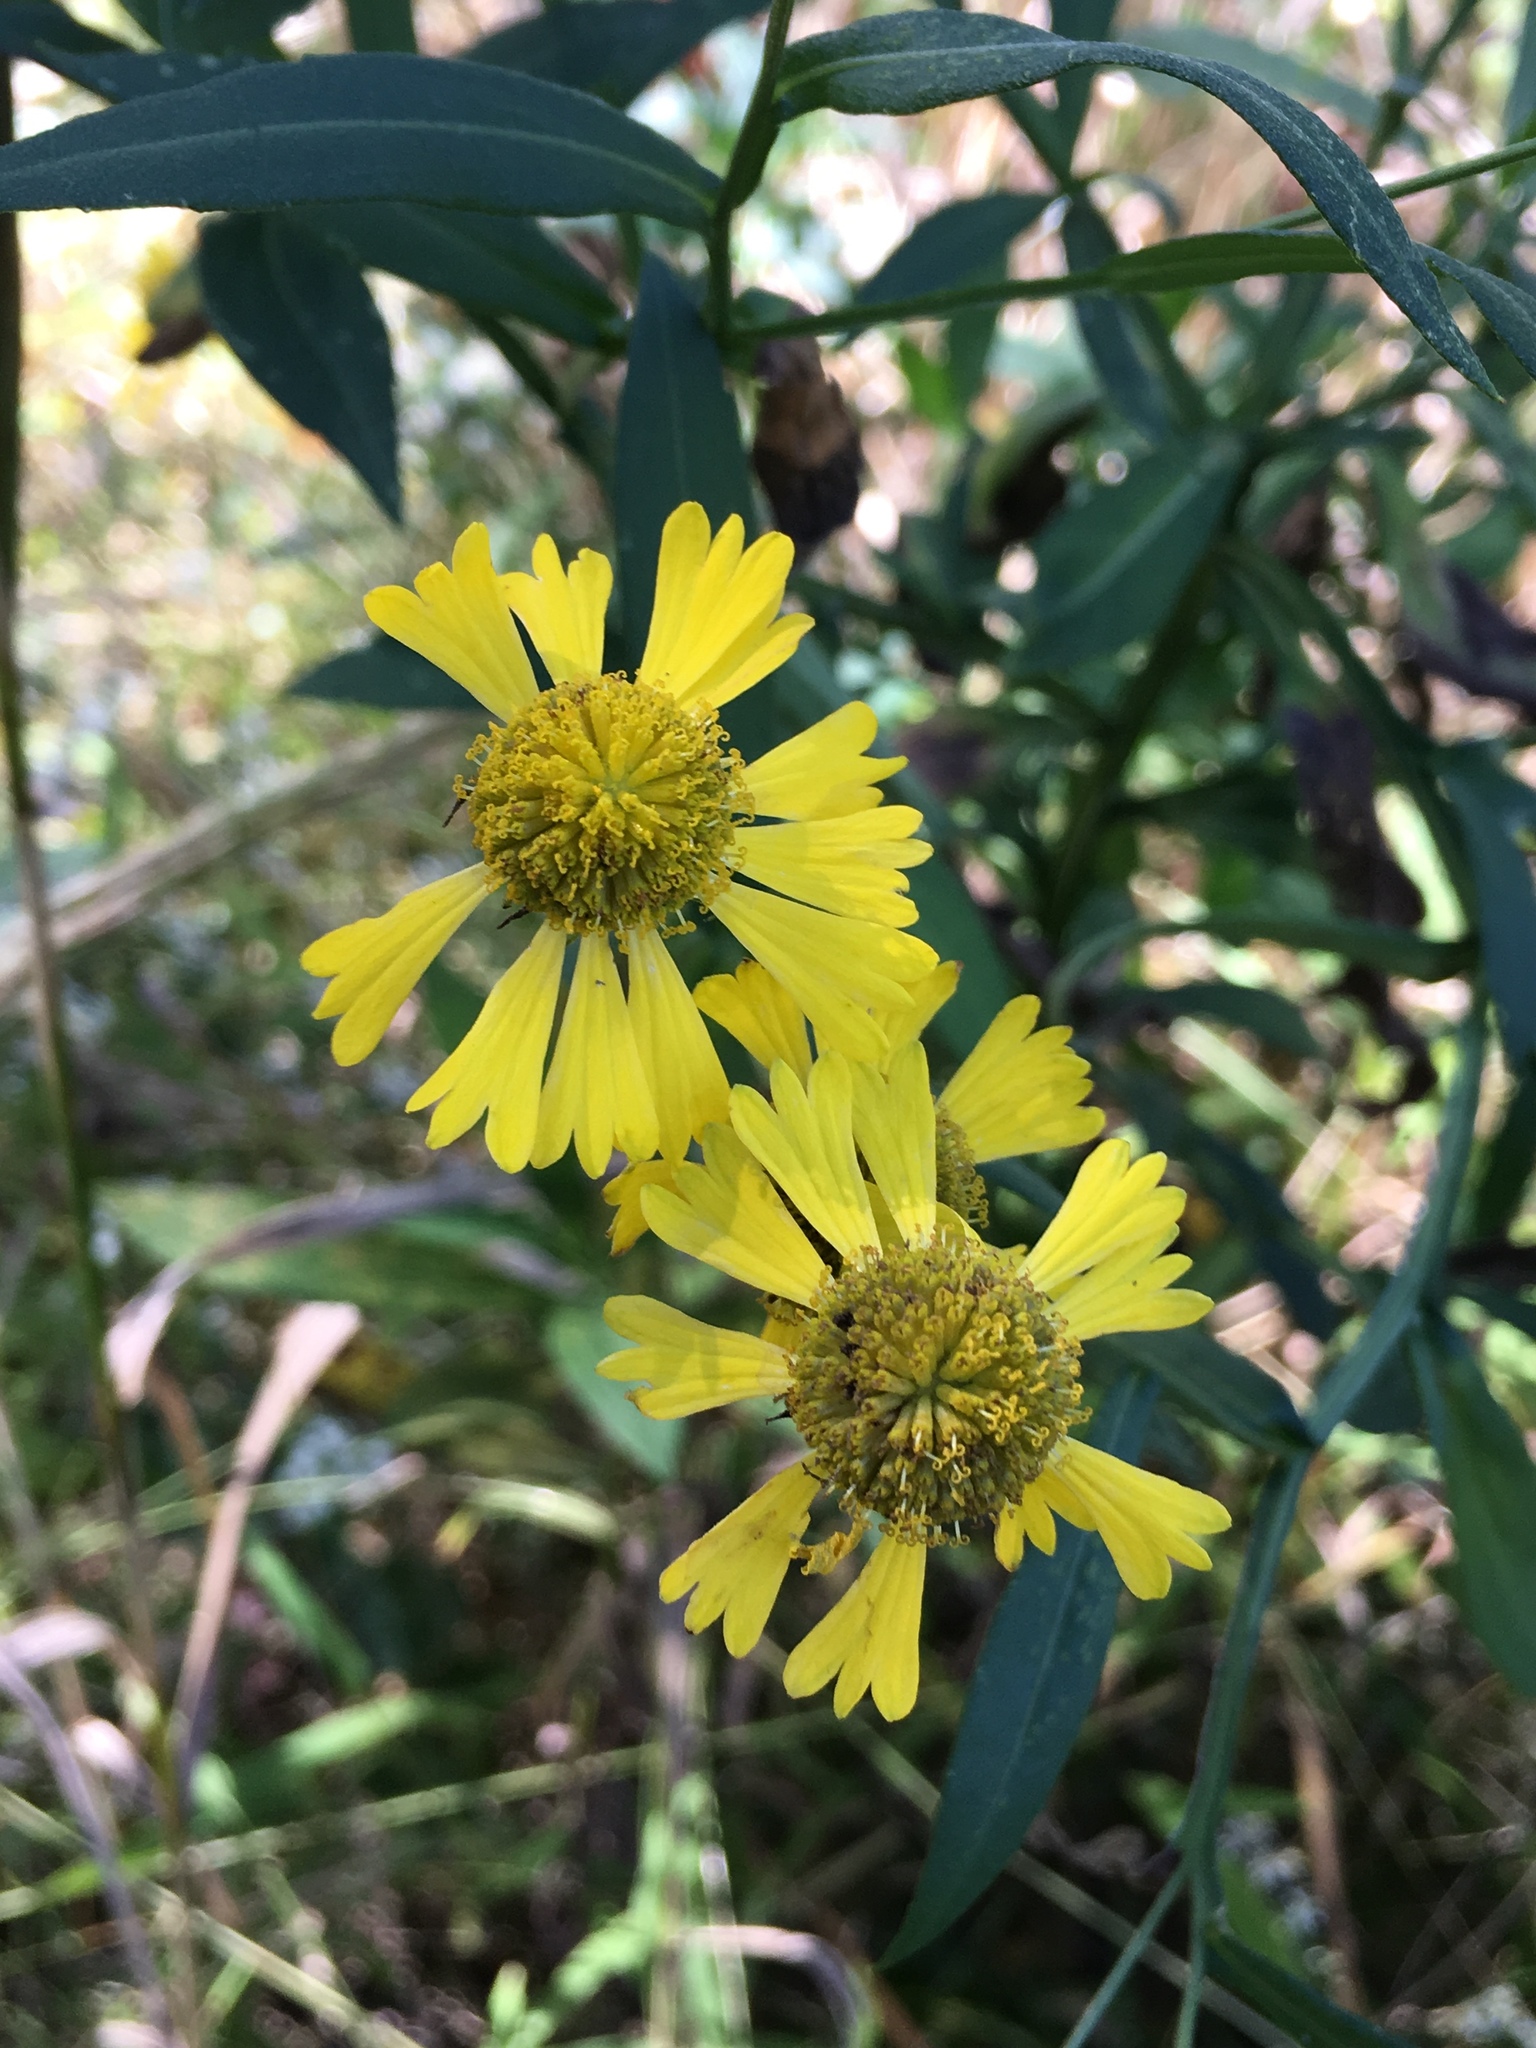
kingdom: Plantae
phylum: Tracheophyta
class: Magnoliopsida
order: Asterales
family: Asteraceae
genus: Helenium
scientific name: Helenium autumnale
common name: Sneezeweed
